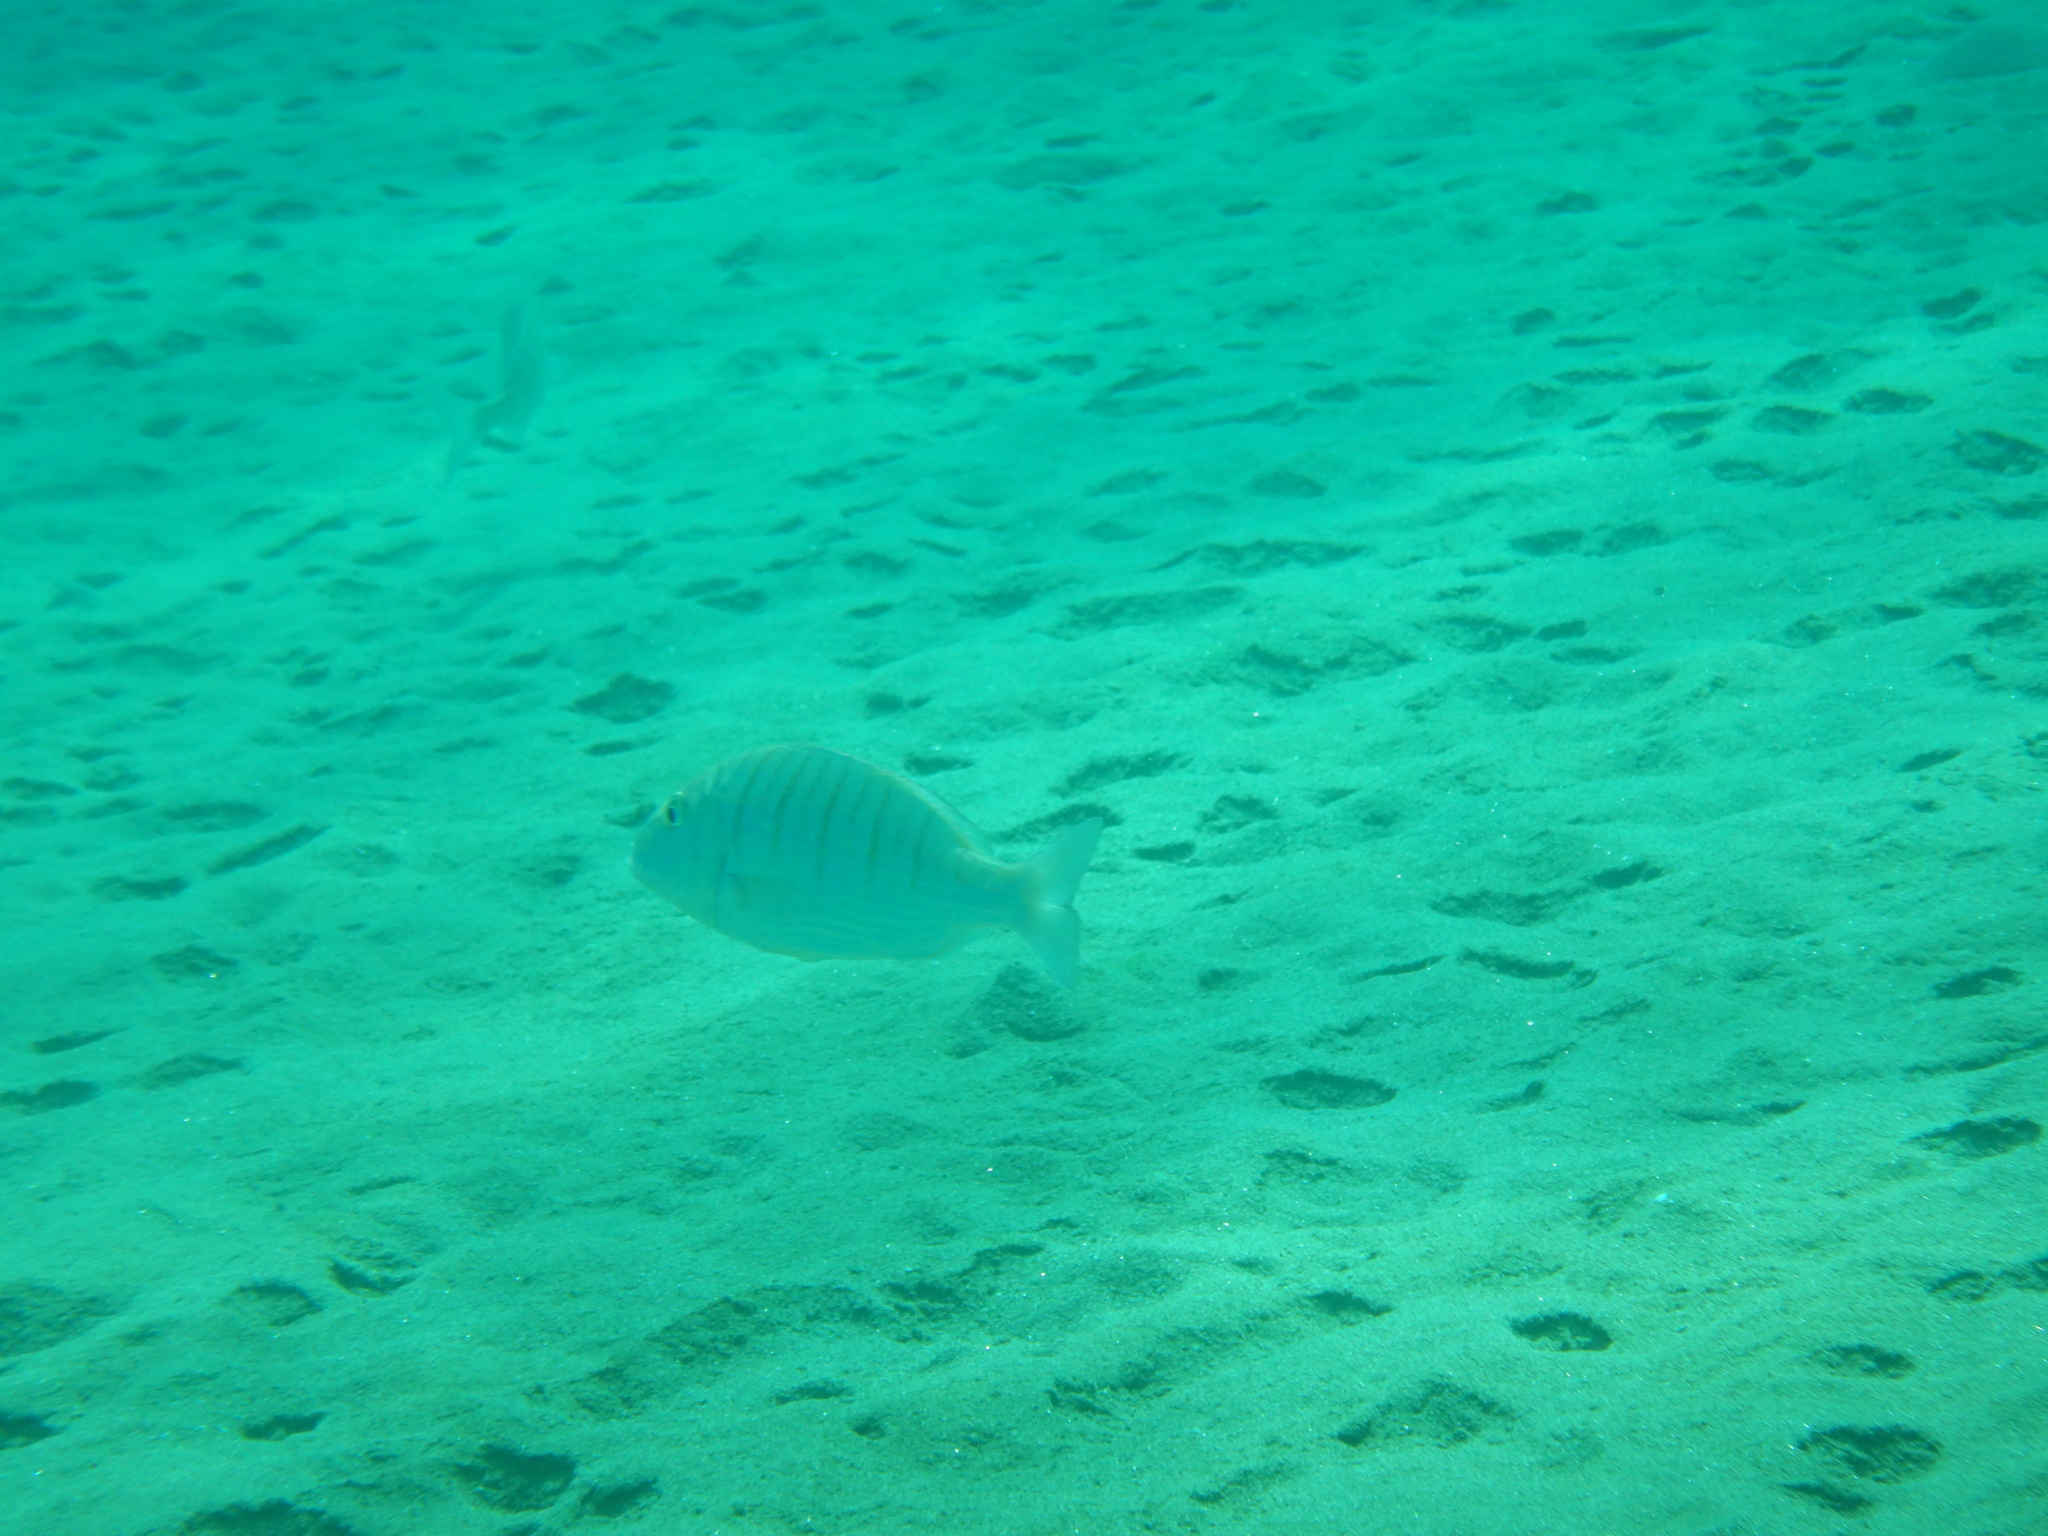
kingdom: Animalia
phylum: Chordata
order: Perciformes
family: Sparidae
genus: Lithognathus
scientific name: Lithognathus mormyrus
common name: Sand steenbras
